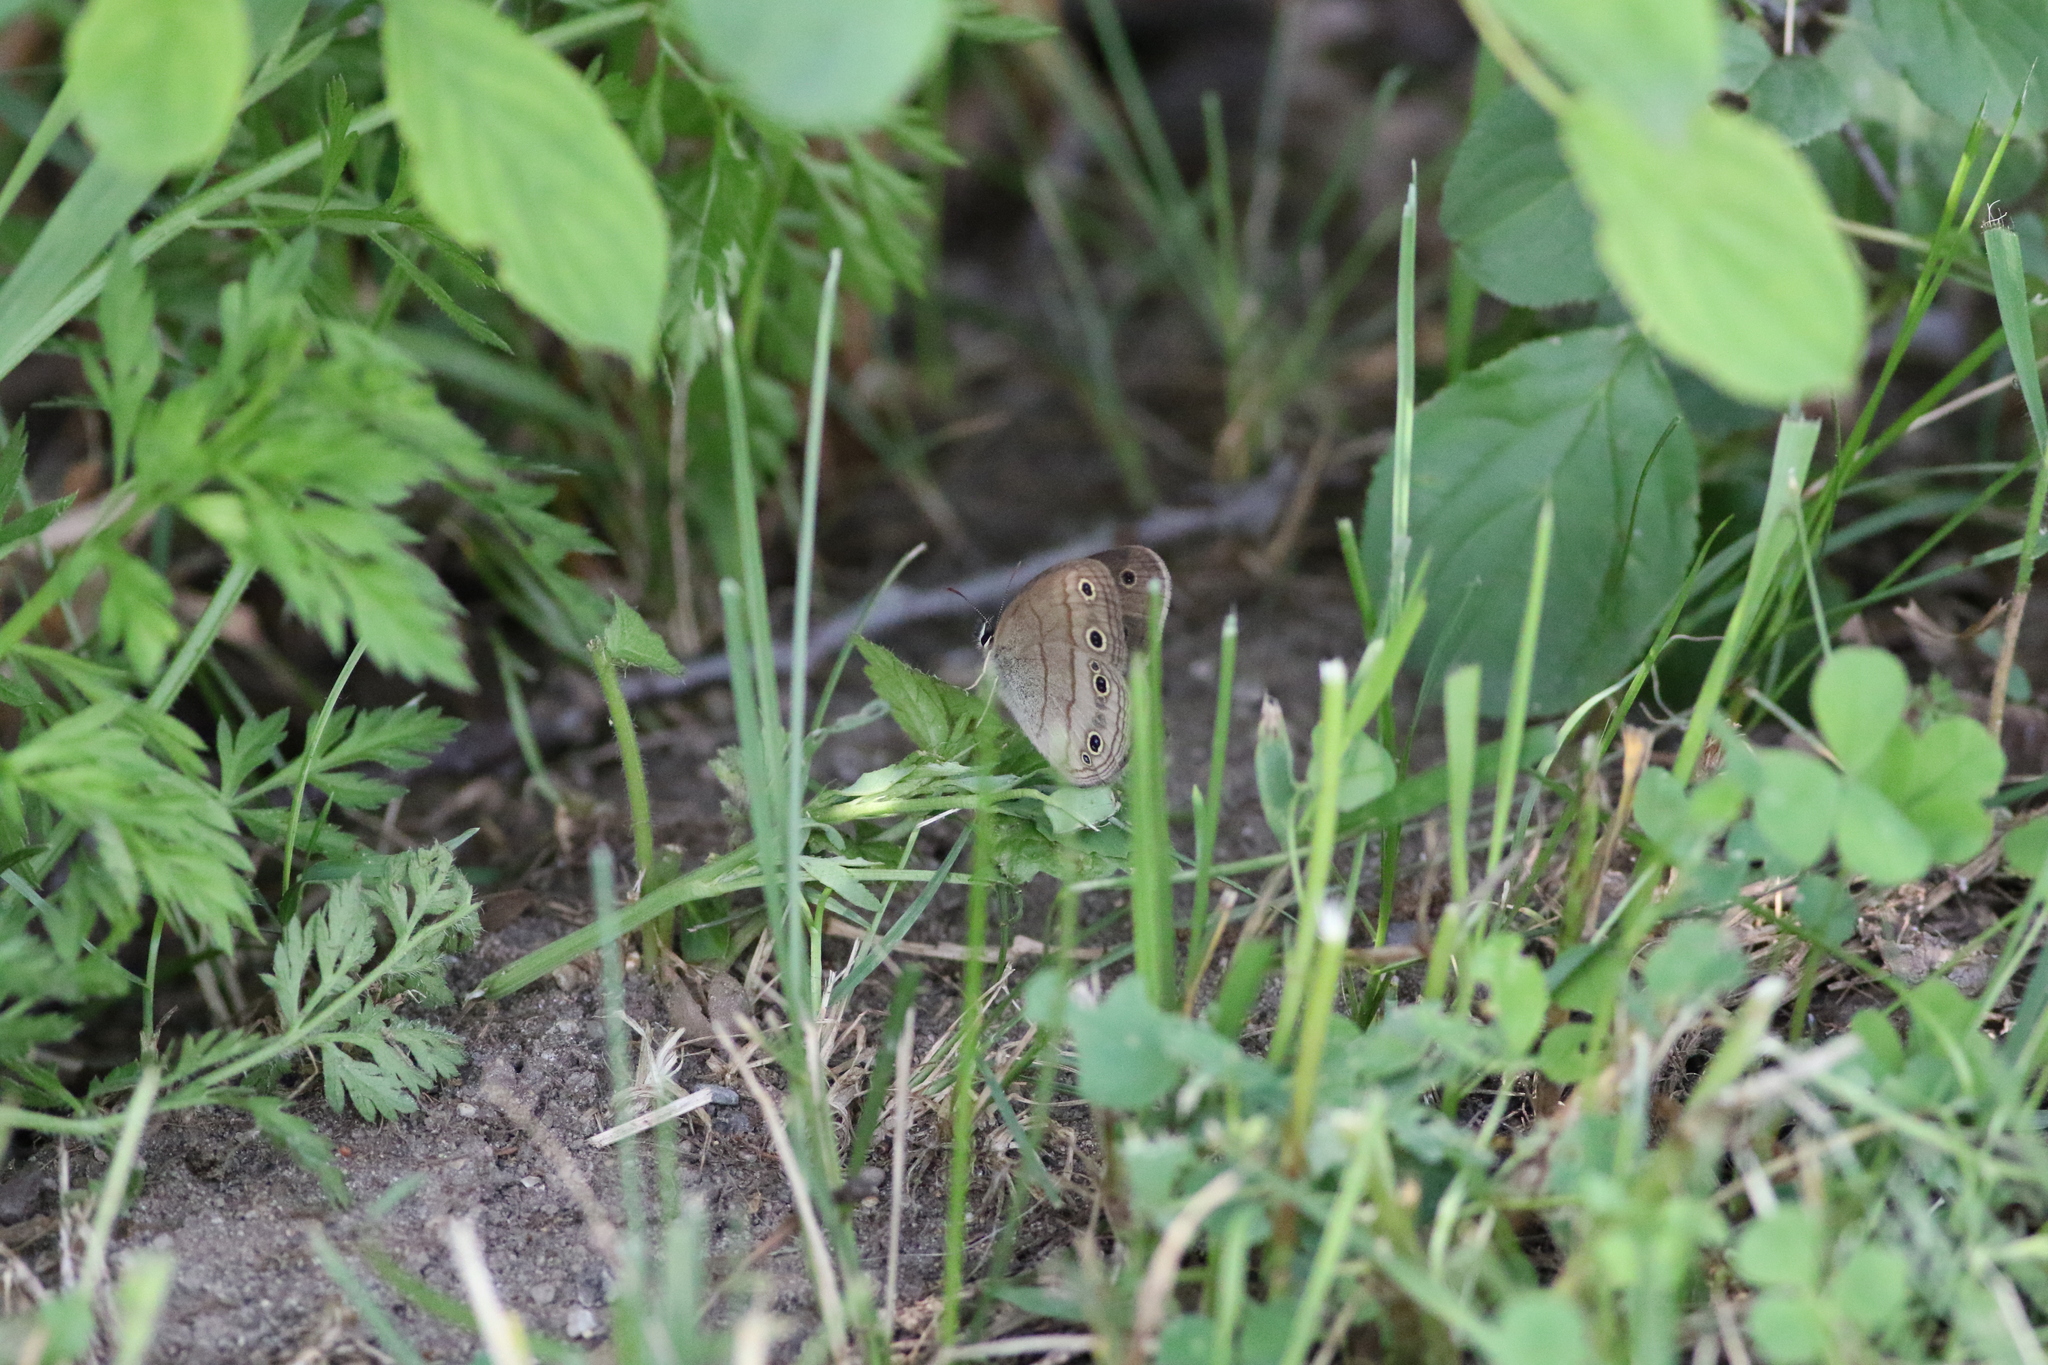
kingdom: Animalia
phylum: Arthropoda
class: Insecta
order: Lepidoptera
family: Nymphalidae
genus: Euptychia
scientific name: Euptychia cymela
